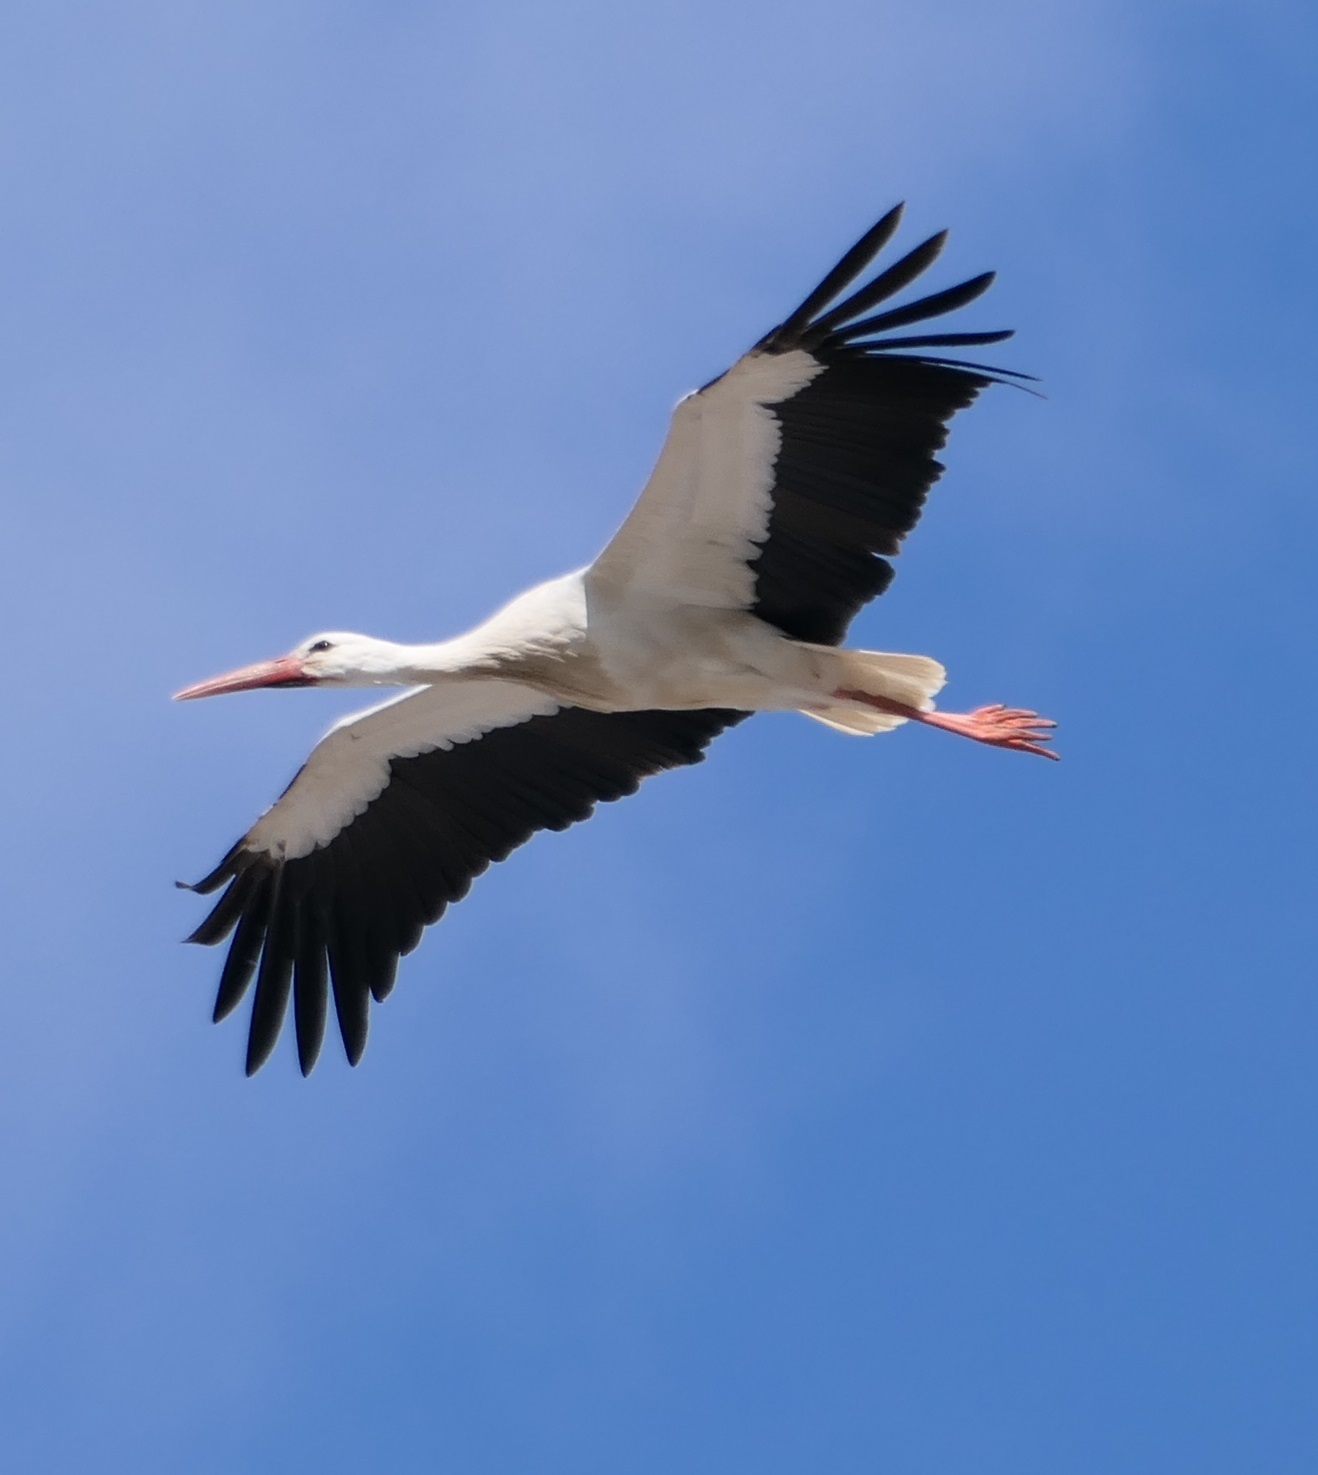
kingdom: Animalia
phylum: Chordata
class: Aves
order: Ciconiiformes
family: Ciconiidae
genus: Ciconia
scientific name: Ciconia ciconia
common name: White stork
